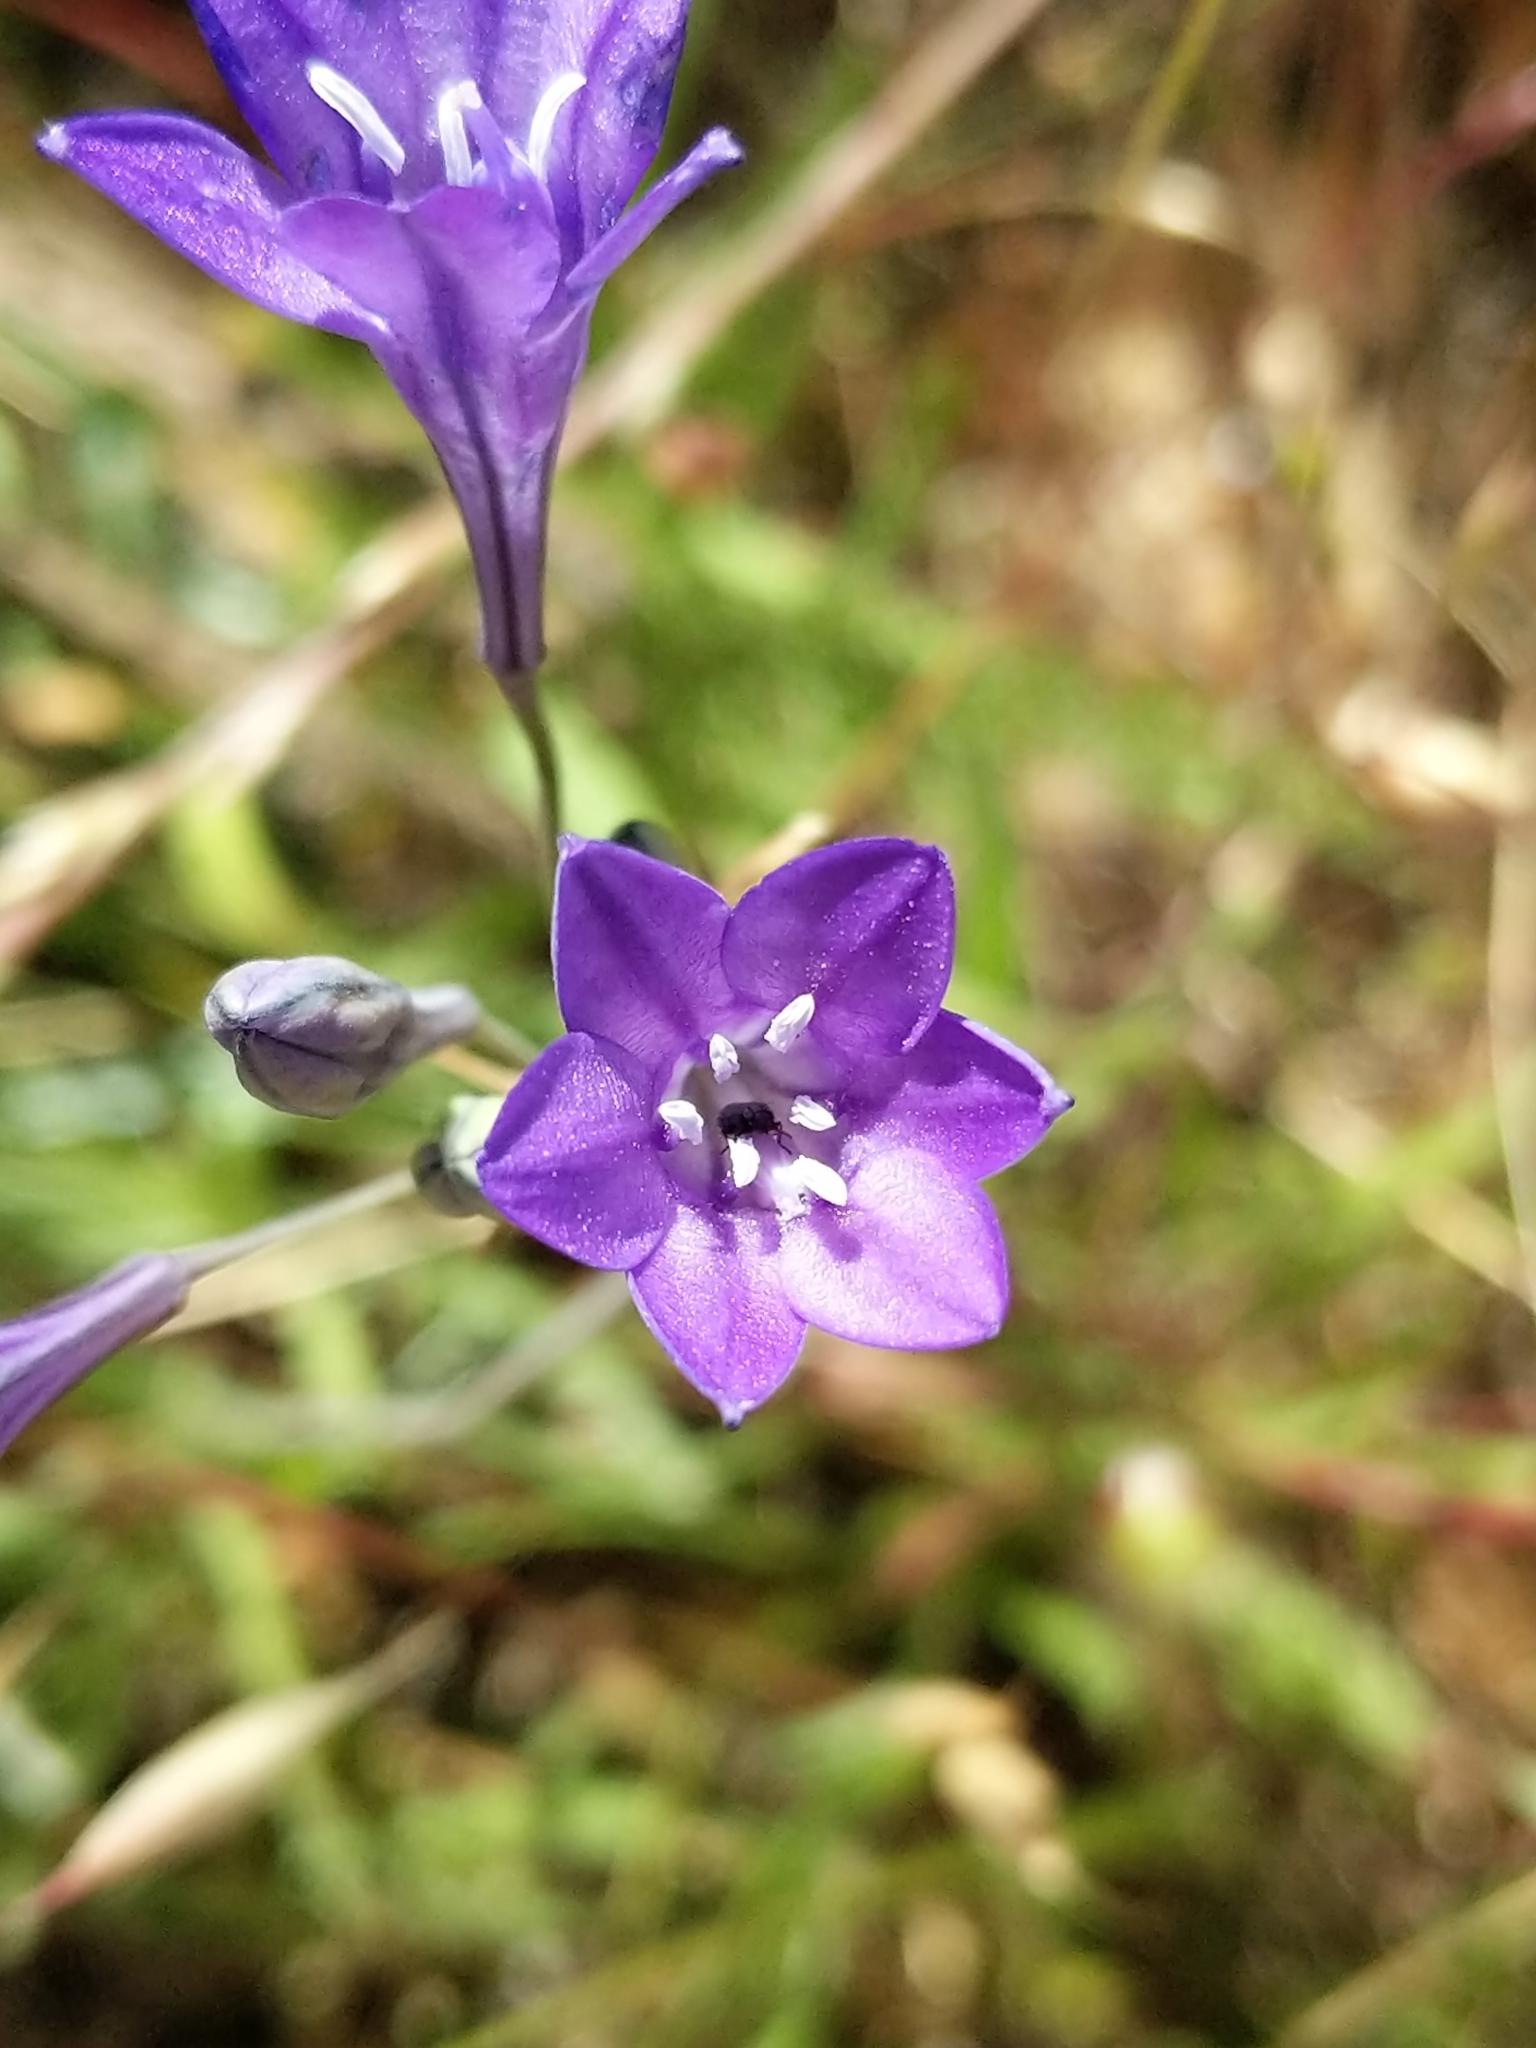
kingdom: Plantae
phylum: Tracheophyta
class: Liliopsida
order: Asparagales
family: Asparagaceae
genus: Triteleia
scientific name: Triteleia laxa
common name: Triplet-lily
